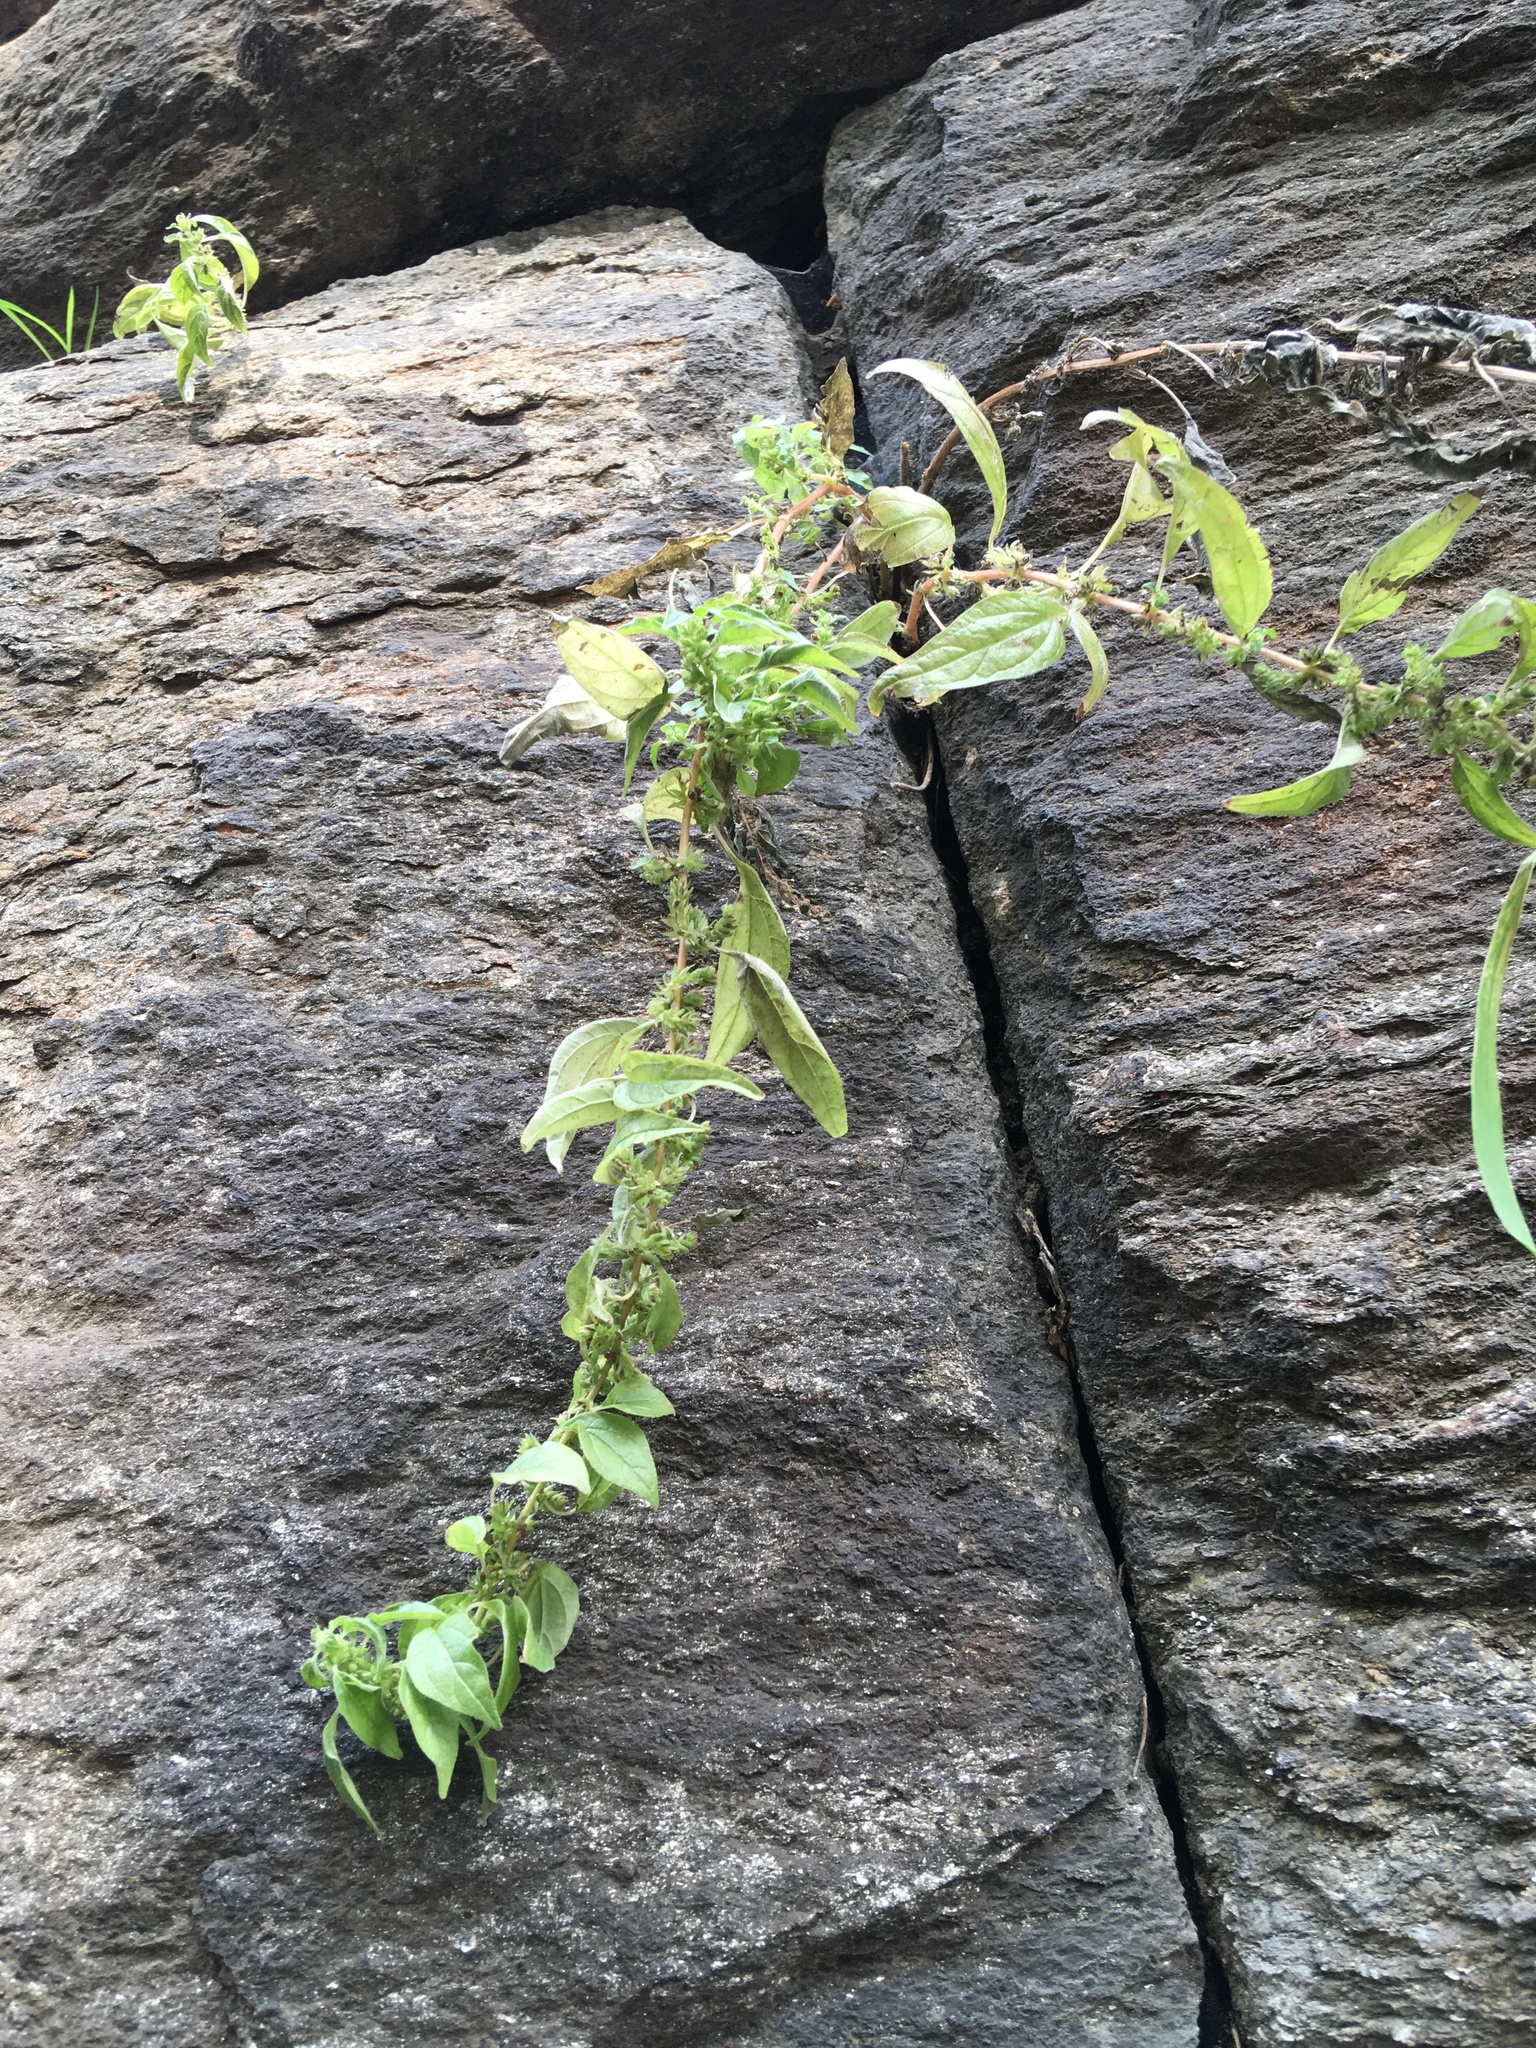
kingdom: Plantae
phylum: Tracheophyta
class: Magnoliopsida
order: Rosales
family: Urticaceae
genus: Parietaria
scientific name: Parietaria pensylvanica
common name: Pennsylvania pellitory
